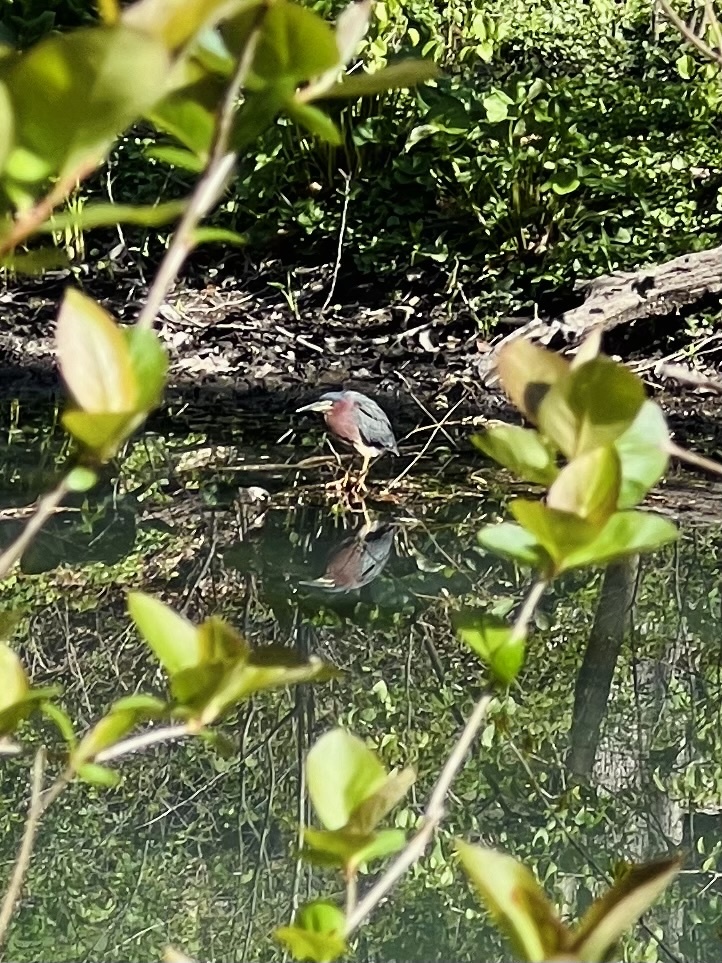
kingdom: Animalia
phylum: Chordata
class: Aves
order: Pelecaniformes
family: Ardeidae
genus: Butorides
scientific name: Butorides virescens
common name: Green heron
